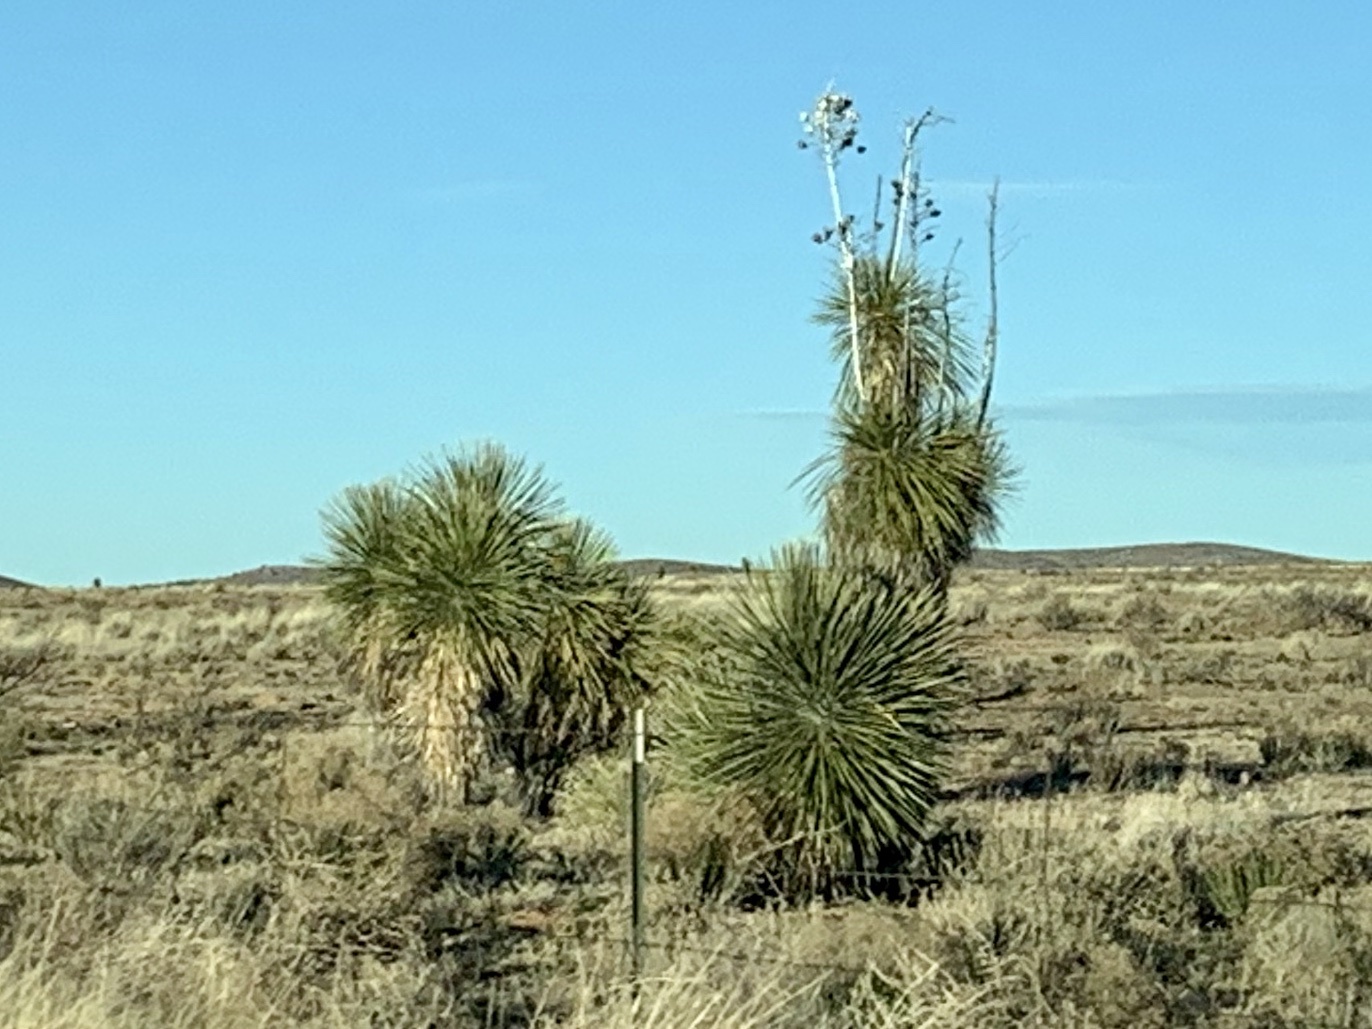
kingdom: Plantae
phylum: Tracheophyta
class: Liliopsida
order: Asparagales
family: Asparagaceae
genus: Yucca
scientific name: Yucca elata
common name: Palmella
